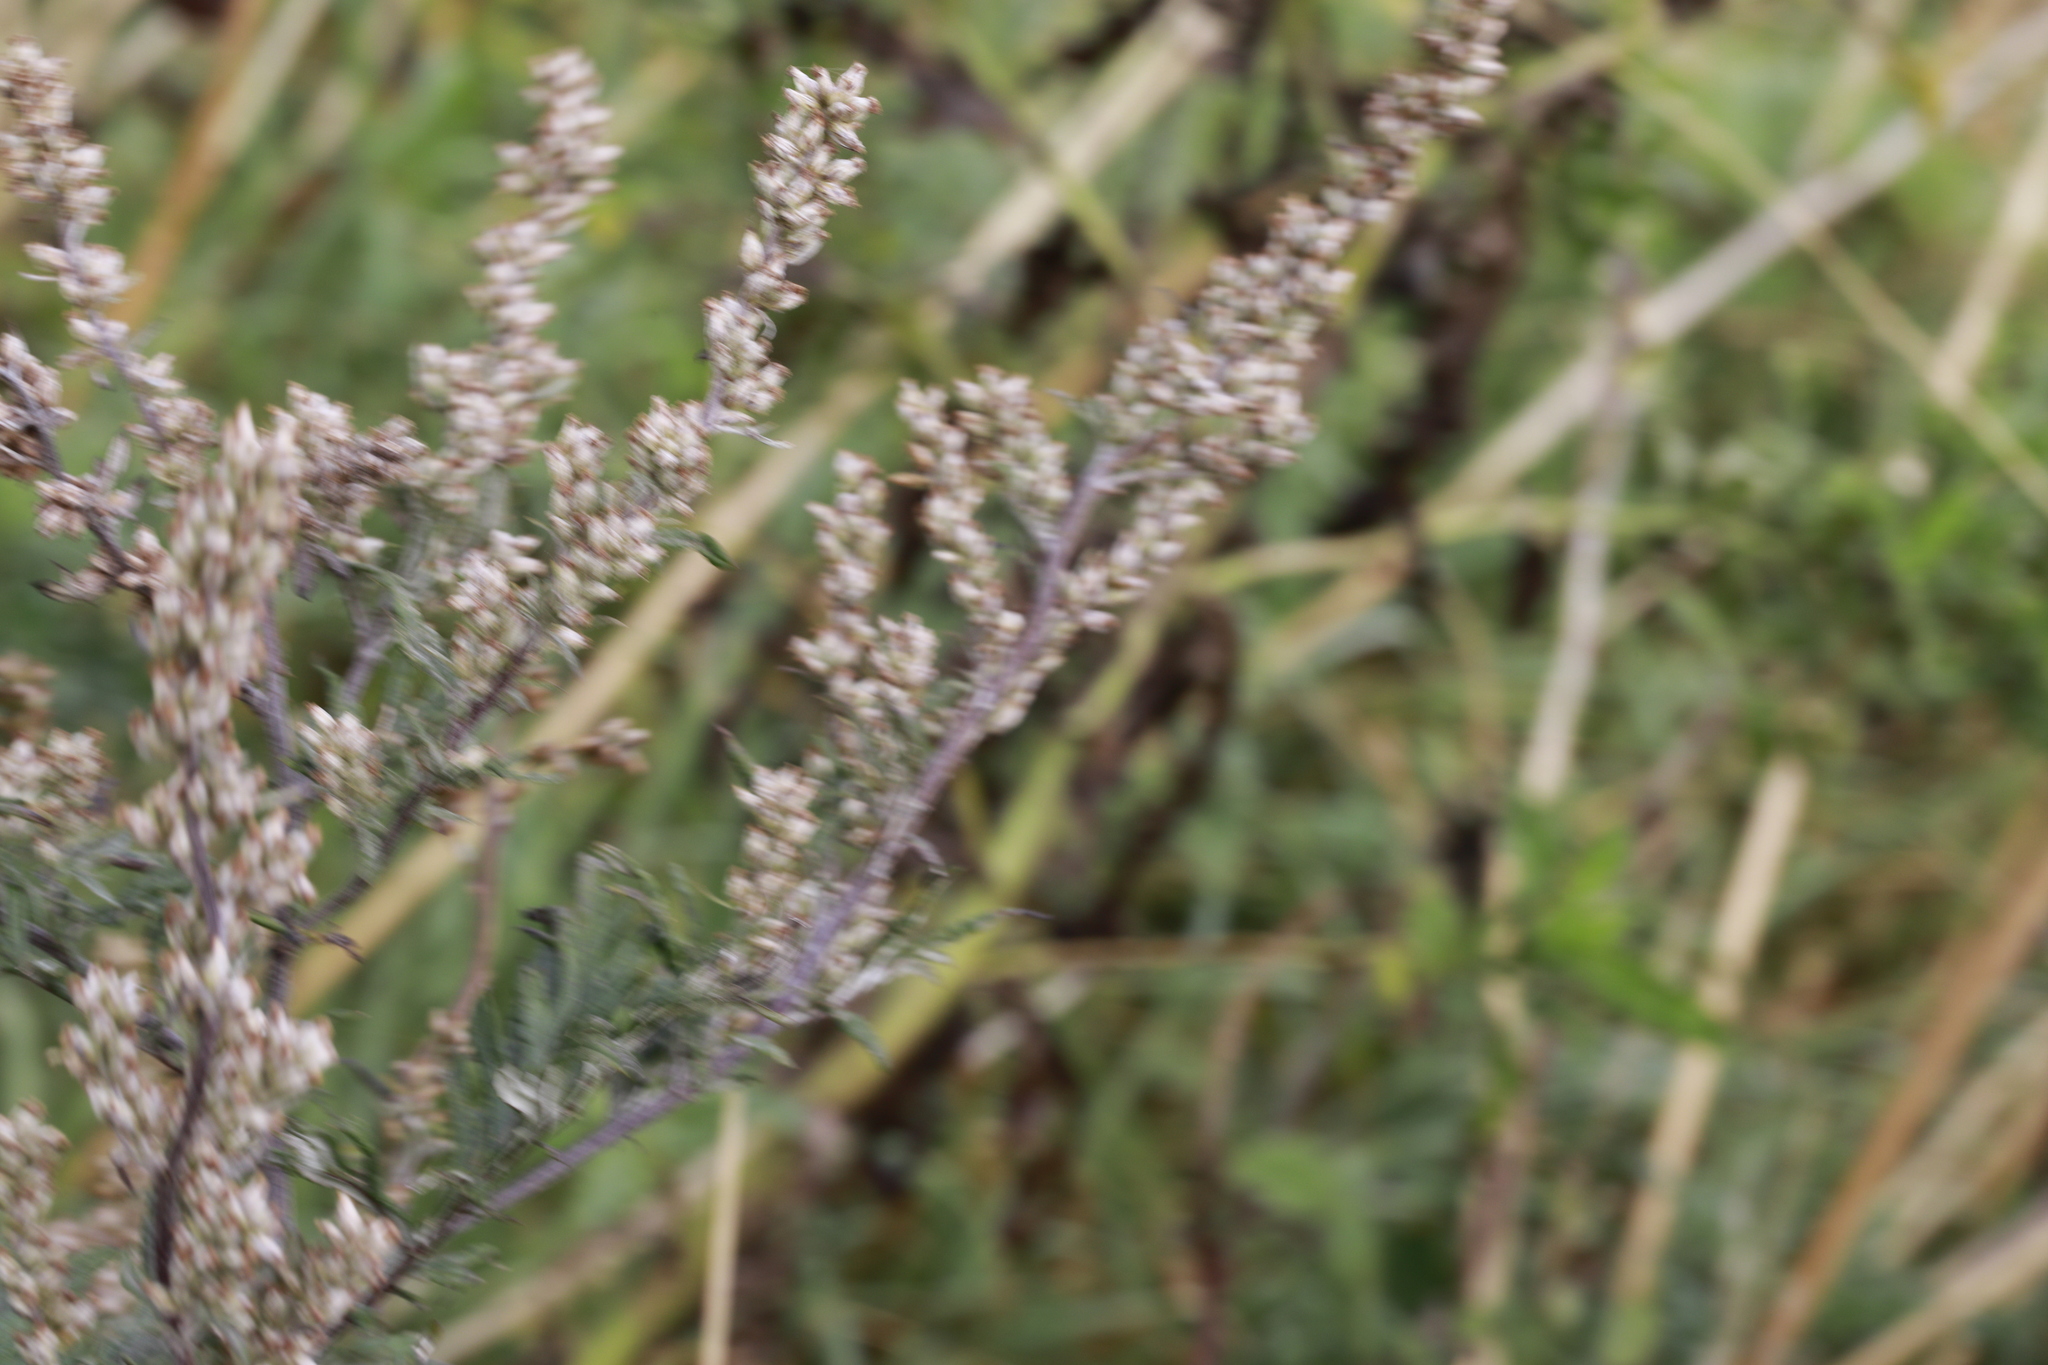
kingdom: Plantae
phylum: Tracheophyta
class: Magnoliopsida
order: Asterales
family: Asteraceae
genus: Artemisia
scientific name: Artemisia vulgaris
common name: Mugwort
